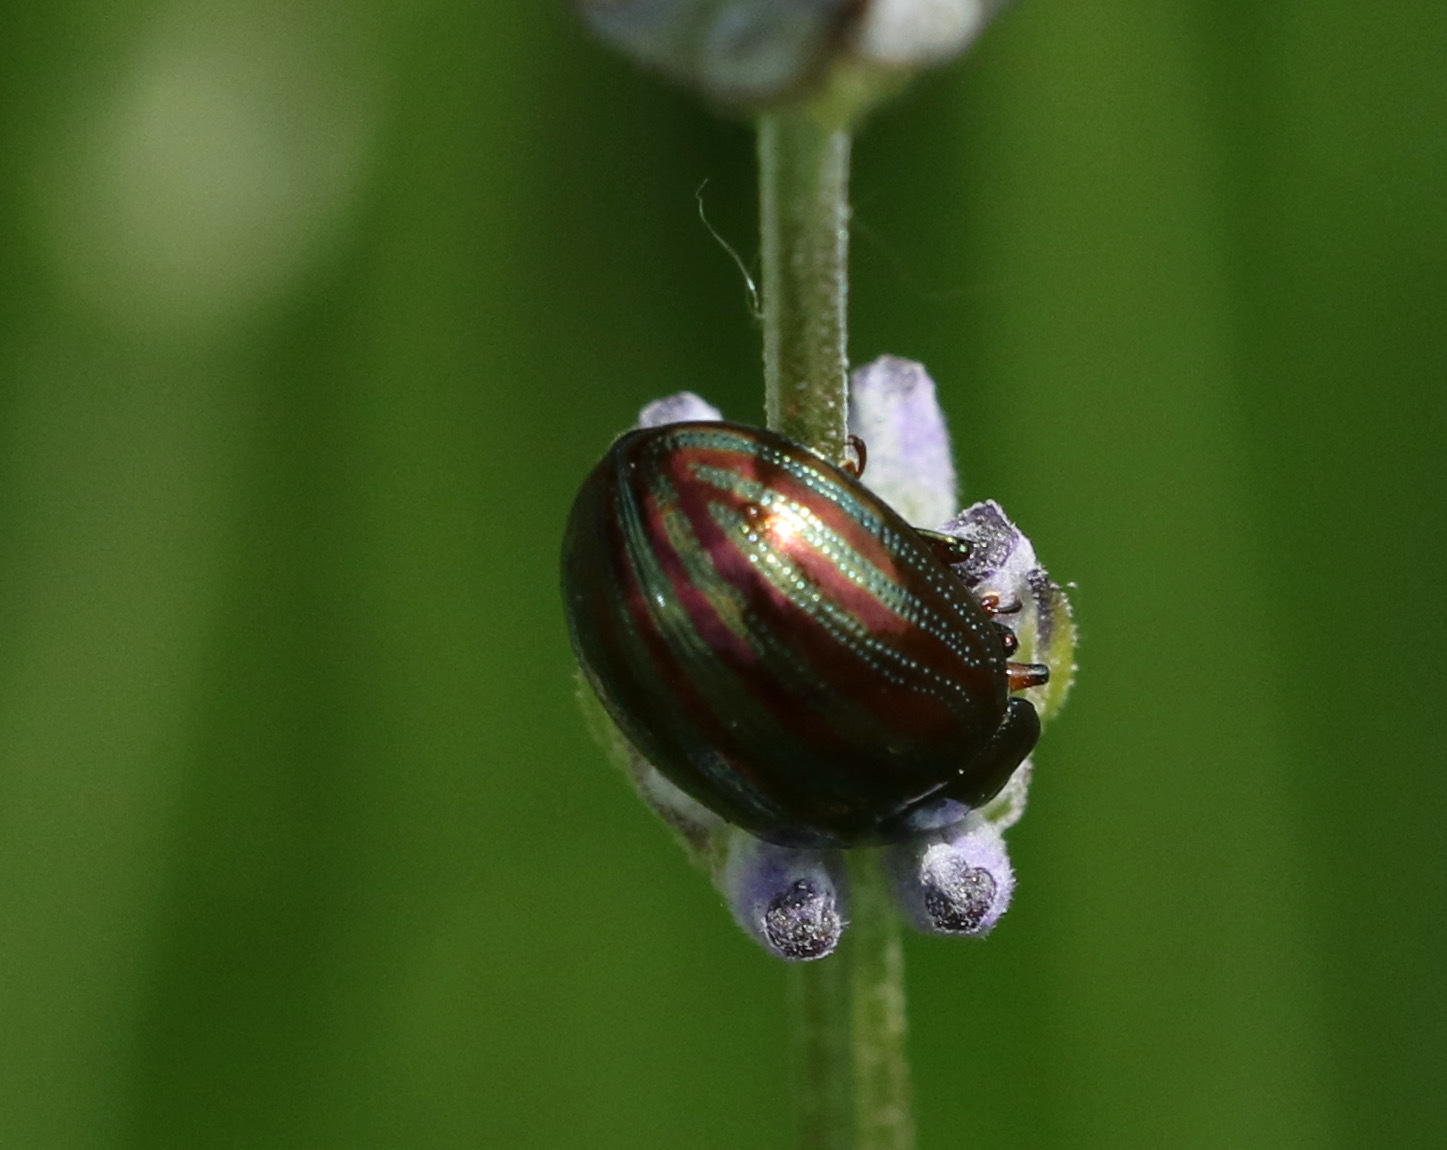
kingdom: Animalia
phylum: Arthropoda
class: Insecta
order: Coleoptera
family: Chrysomelidae
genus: Chrysolina
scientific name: Chrysolina americana
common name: Rosemary beetle
